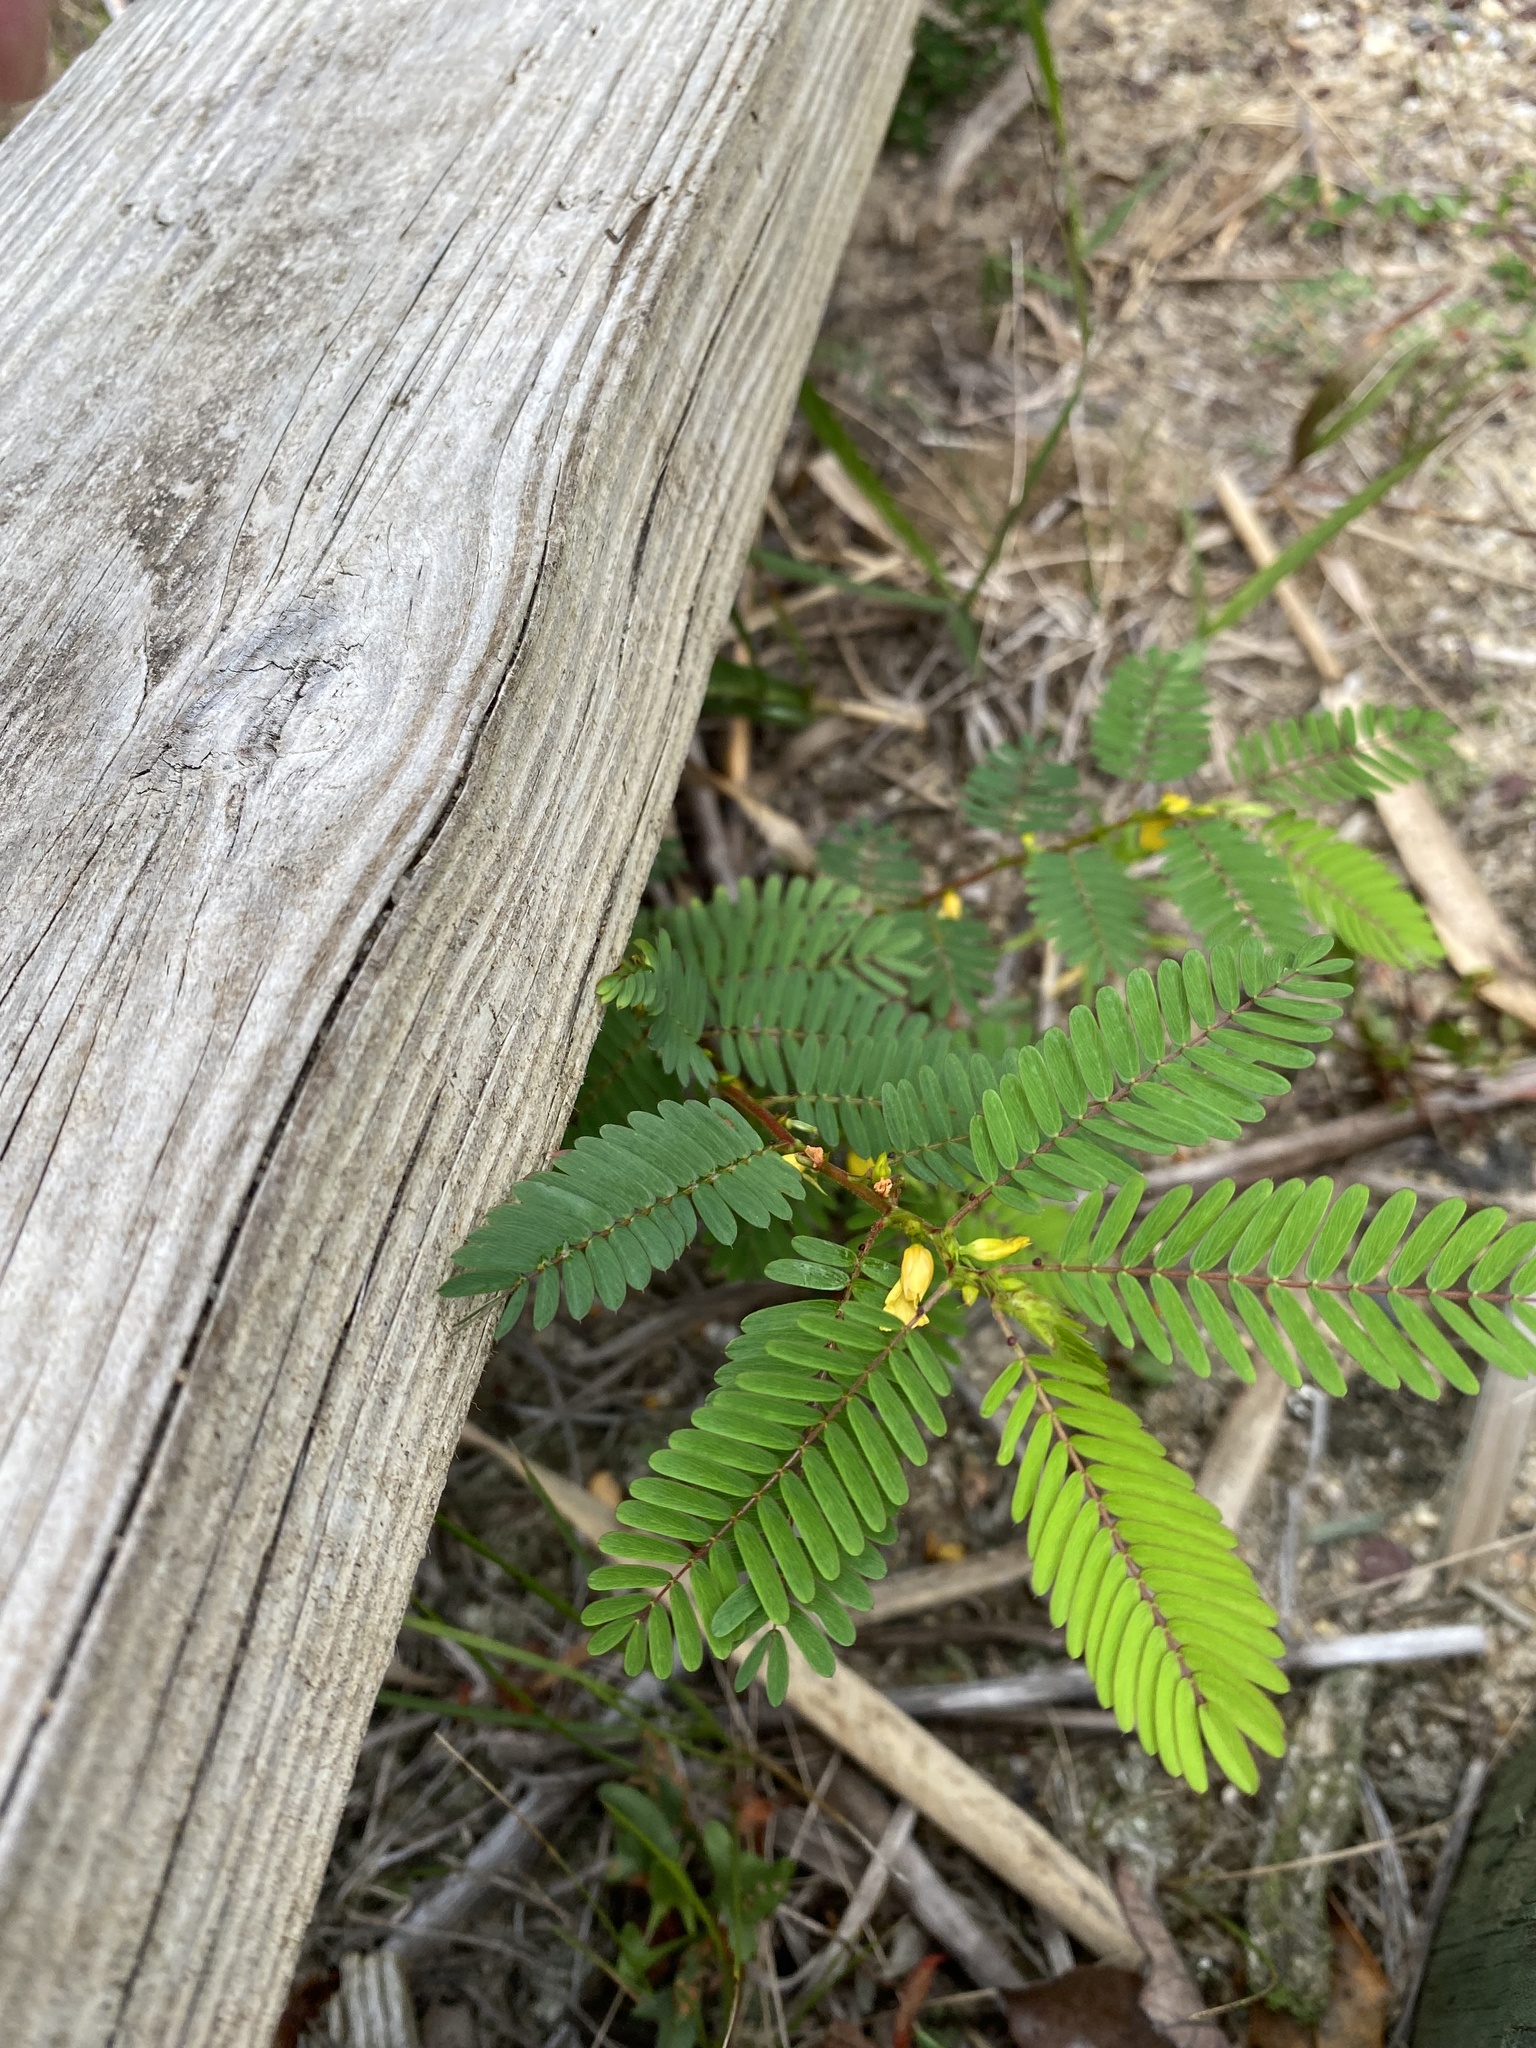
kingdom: Plantae
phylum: Tracheophyta
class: Magnoliopsida
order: Fabales
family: Fabaceae
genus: Chamaecrista
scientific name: Chamaecrista nictitans
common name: Sensitive cassia
